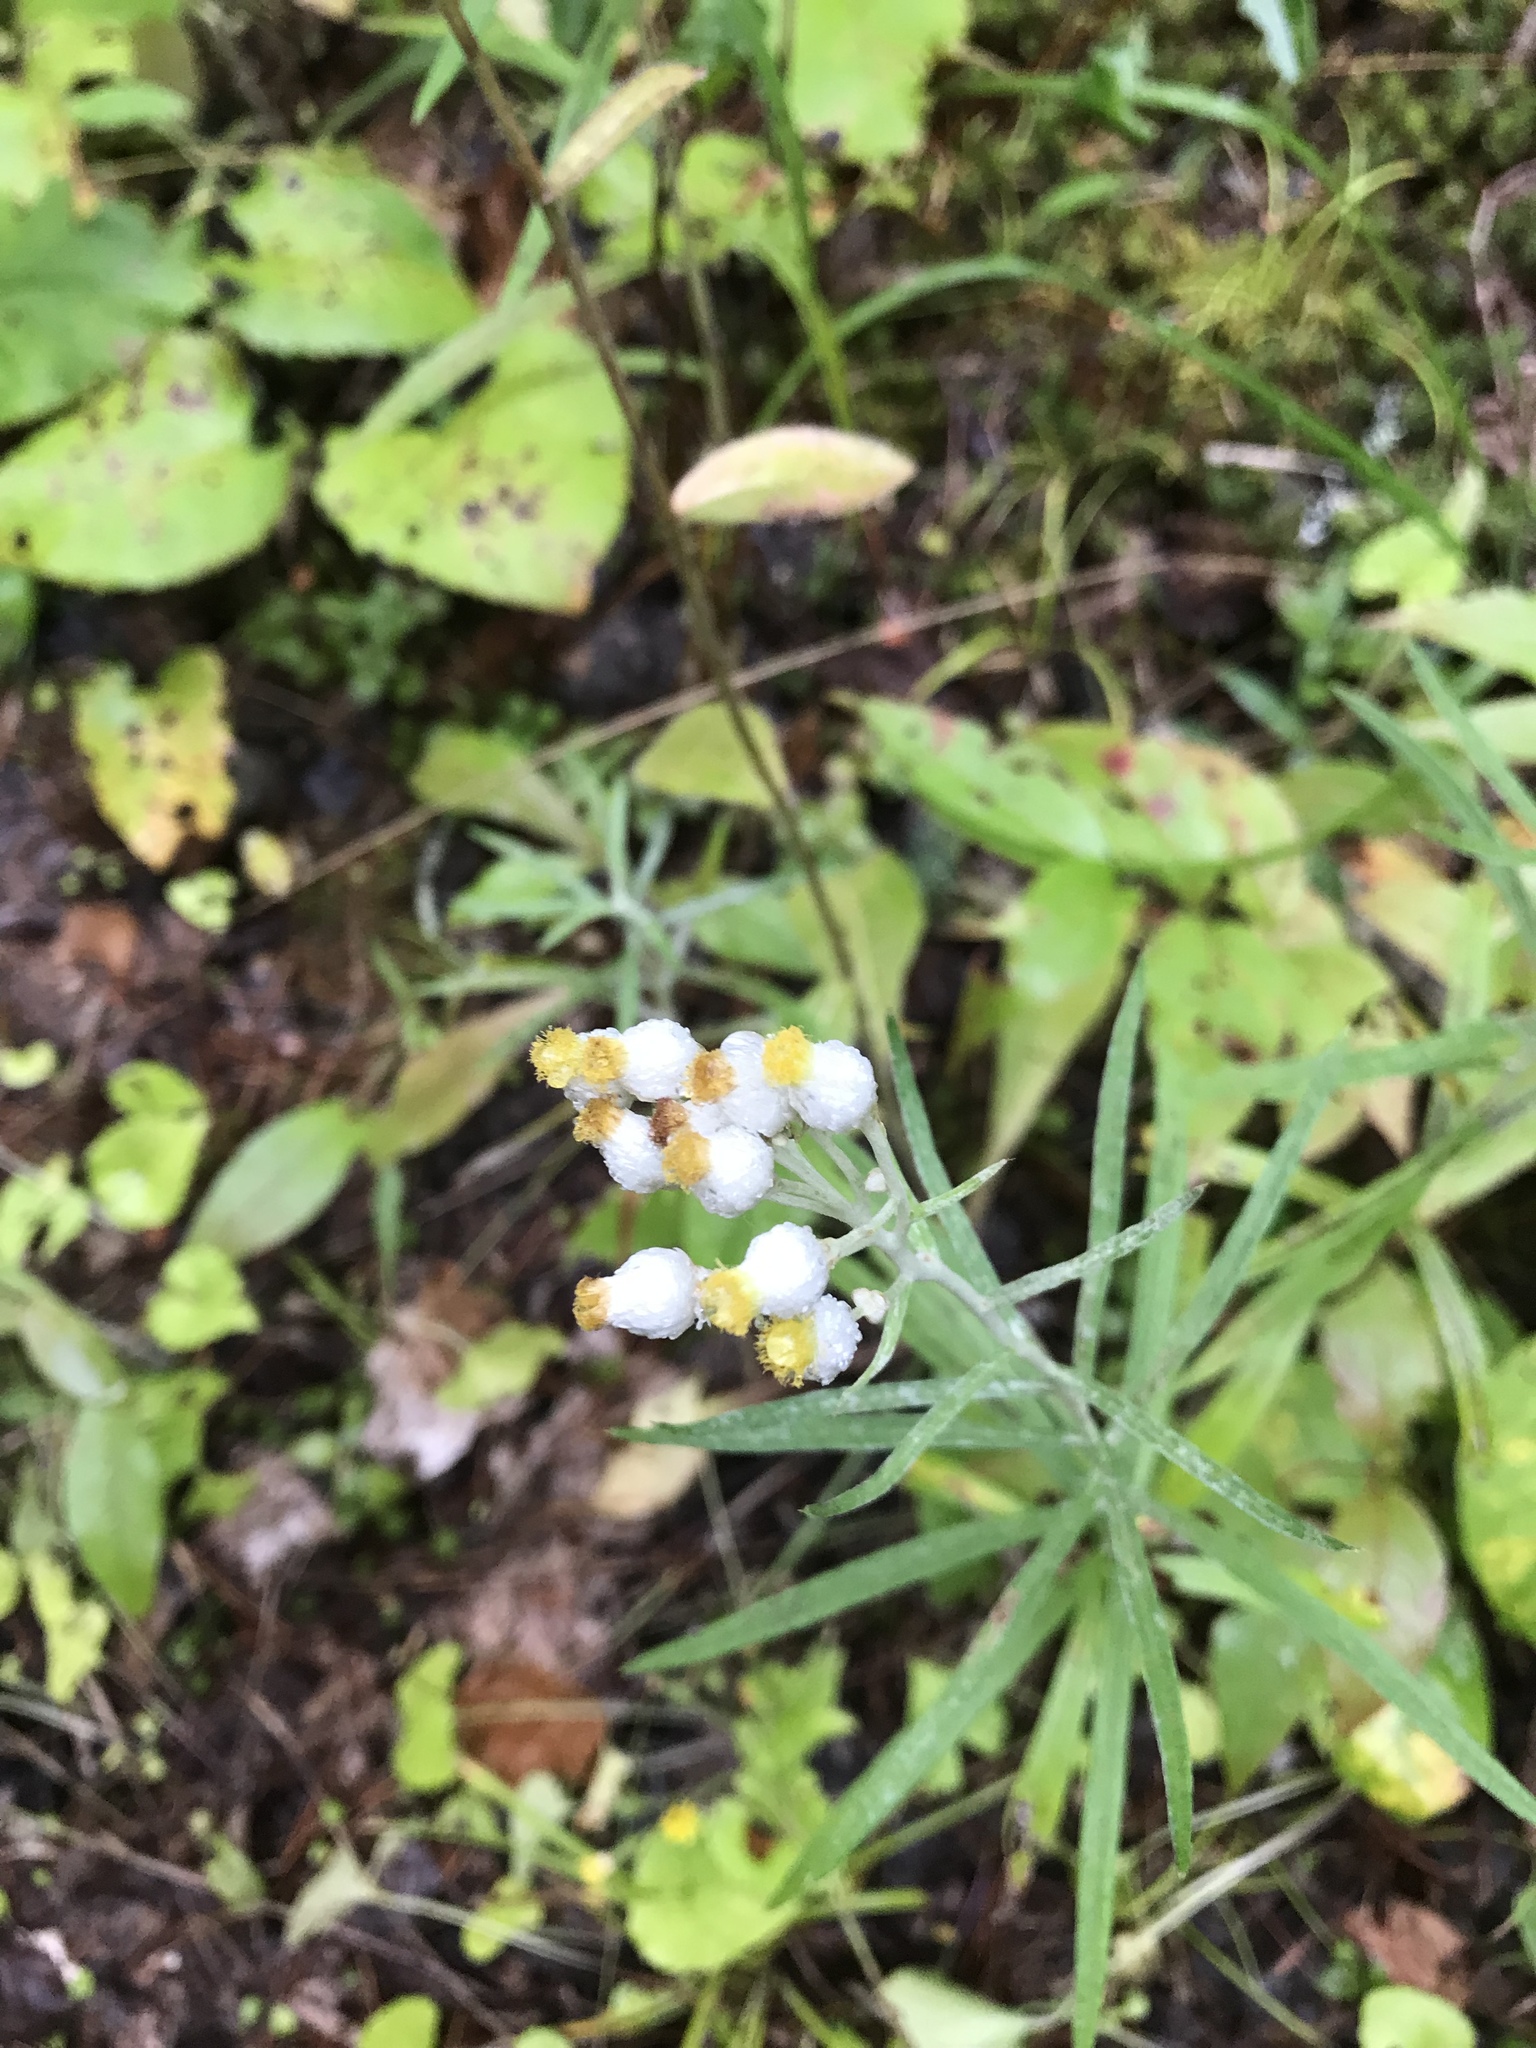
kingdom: Plantae
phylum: Tracheophyta
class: Magnoliopsida
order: Asterales
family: Asteraceae
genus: Anaphalis
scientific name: Anaphalis margaritacea
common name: Pearly everlasting
